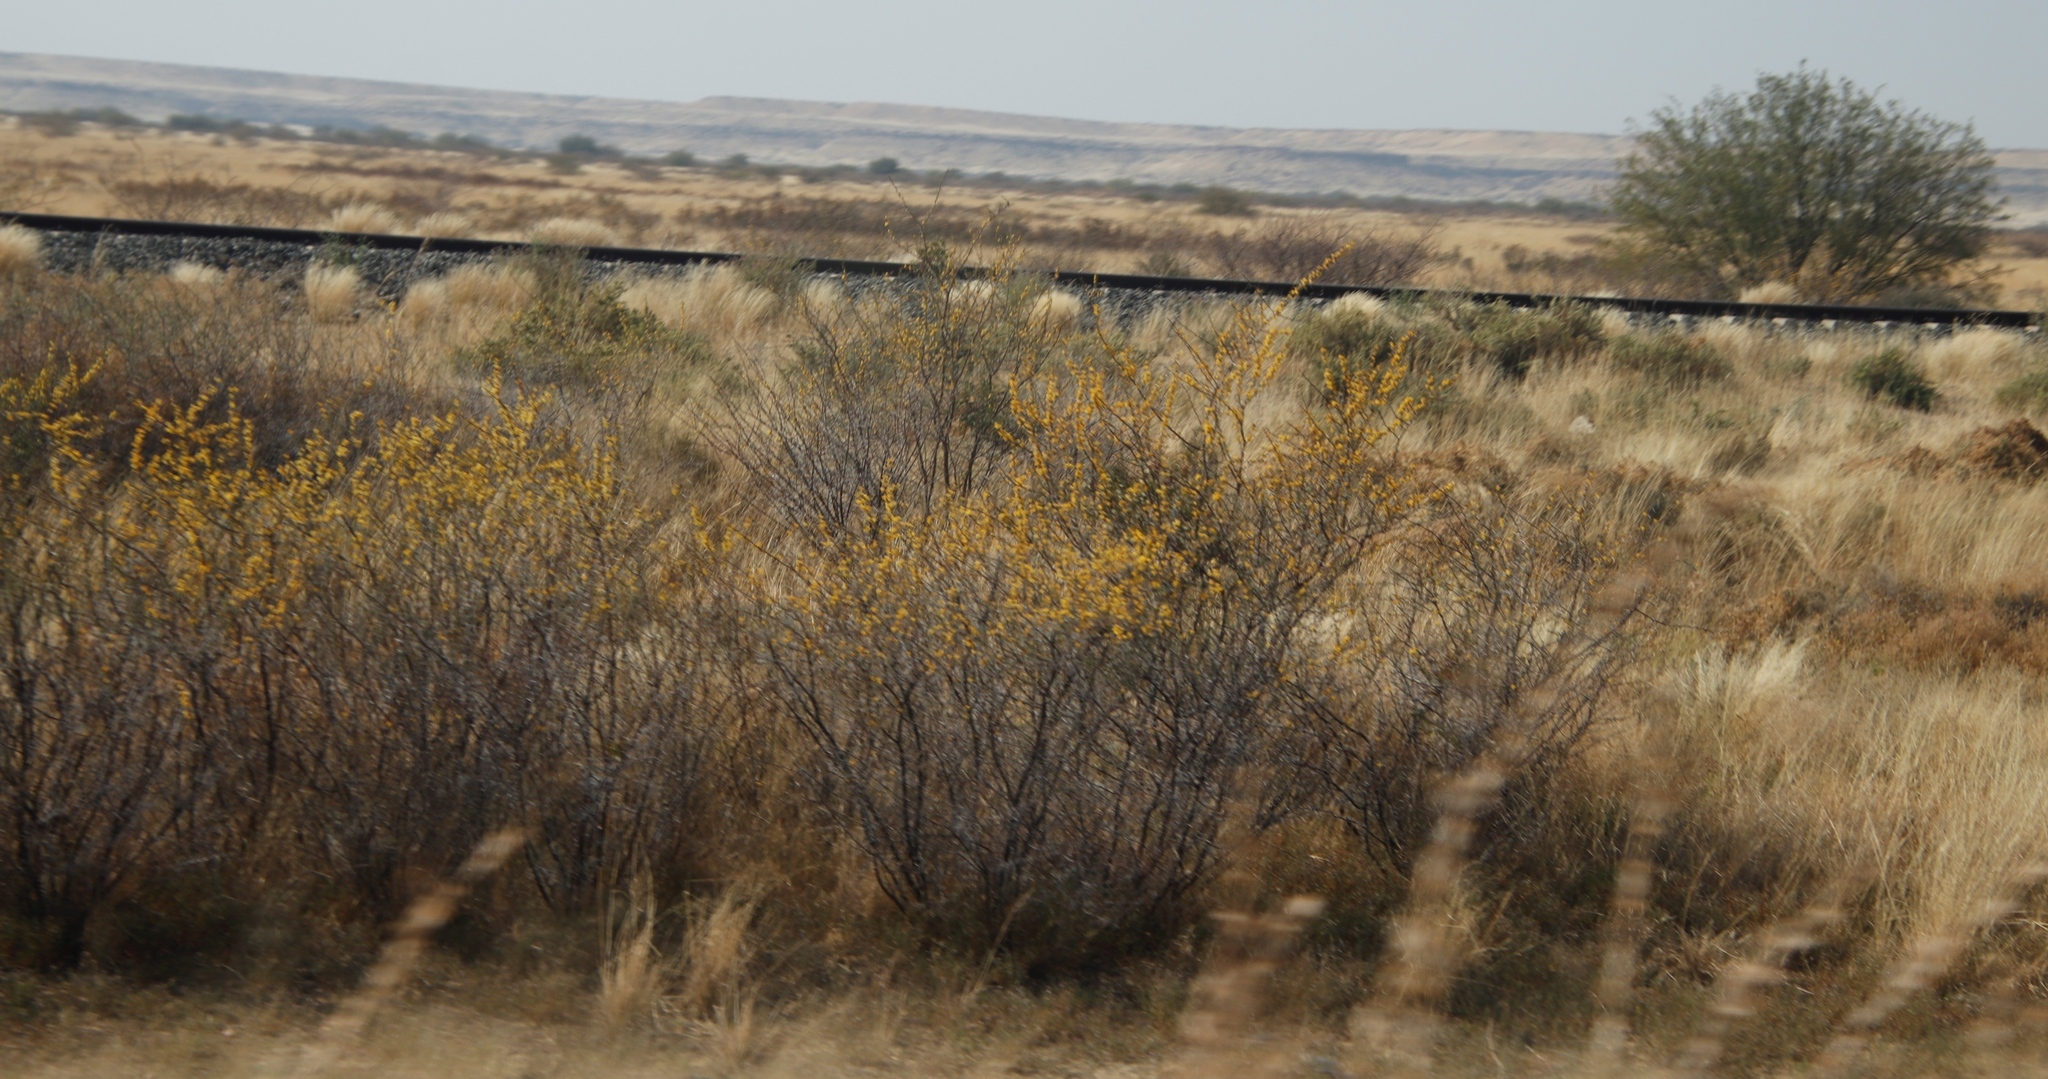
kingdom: Plantae
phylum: Tracheophyta
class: Magnoliopsida
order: Fabales
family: Fabaceae
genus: Vachellia
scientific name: Vachellia nebrownii
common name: Water acacia
